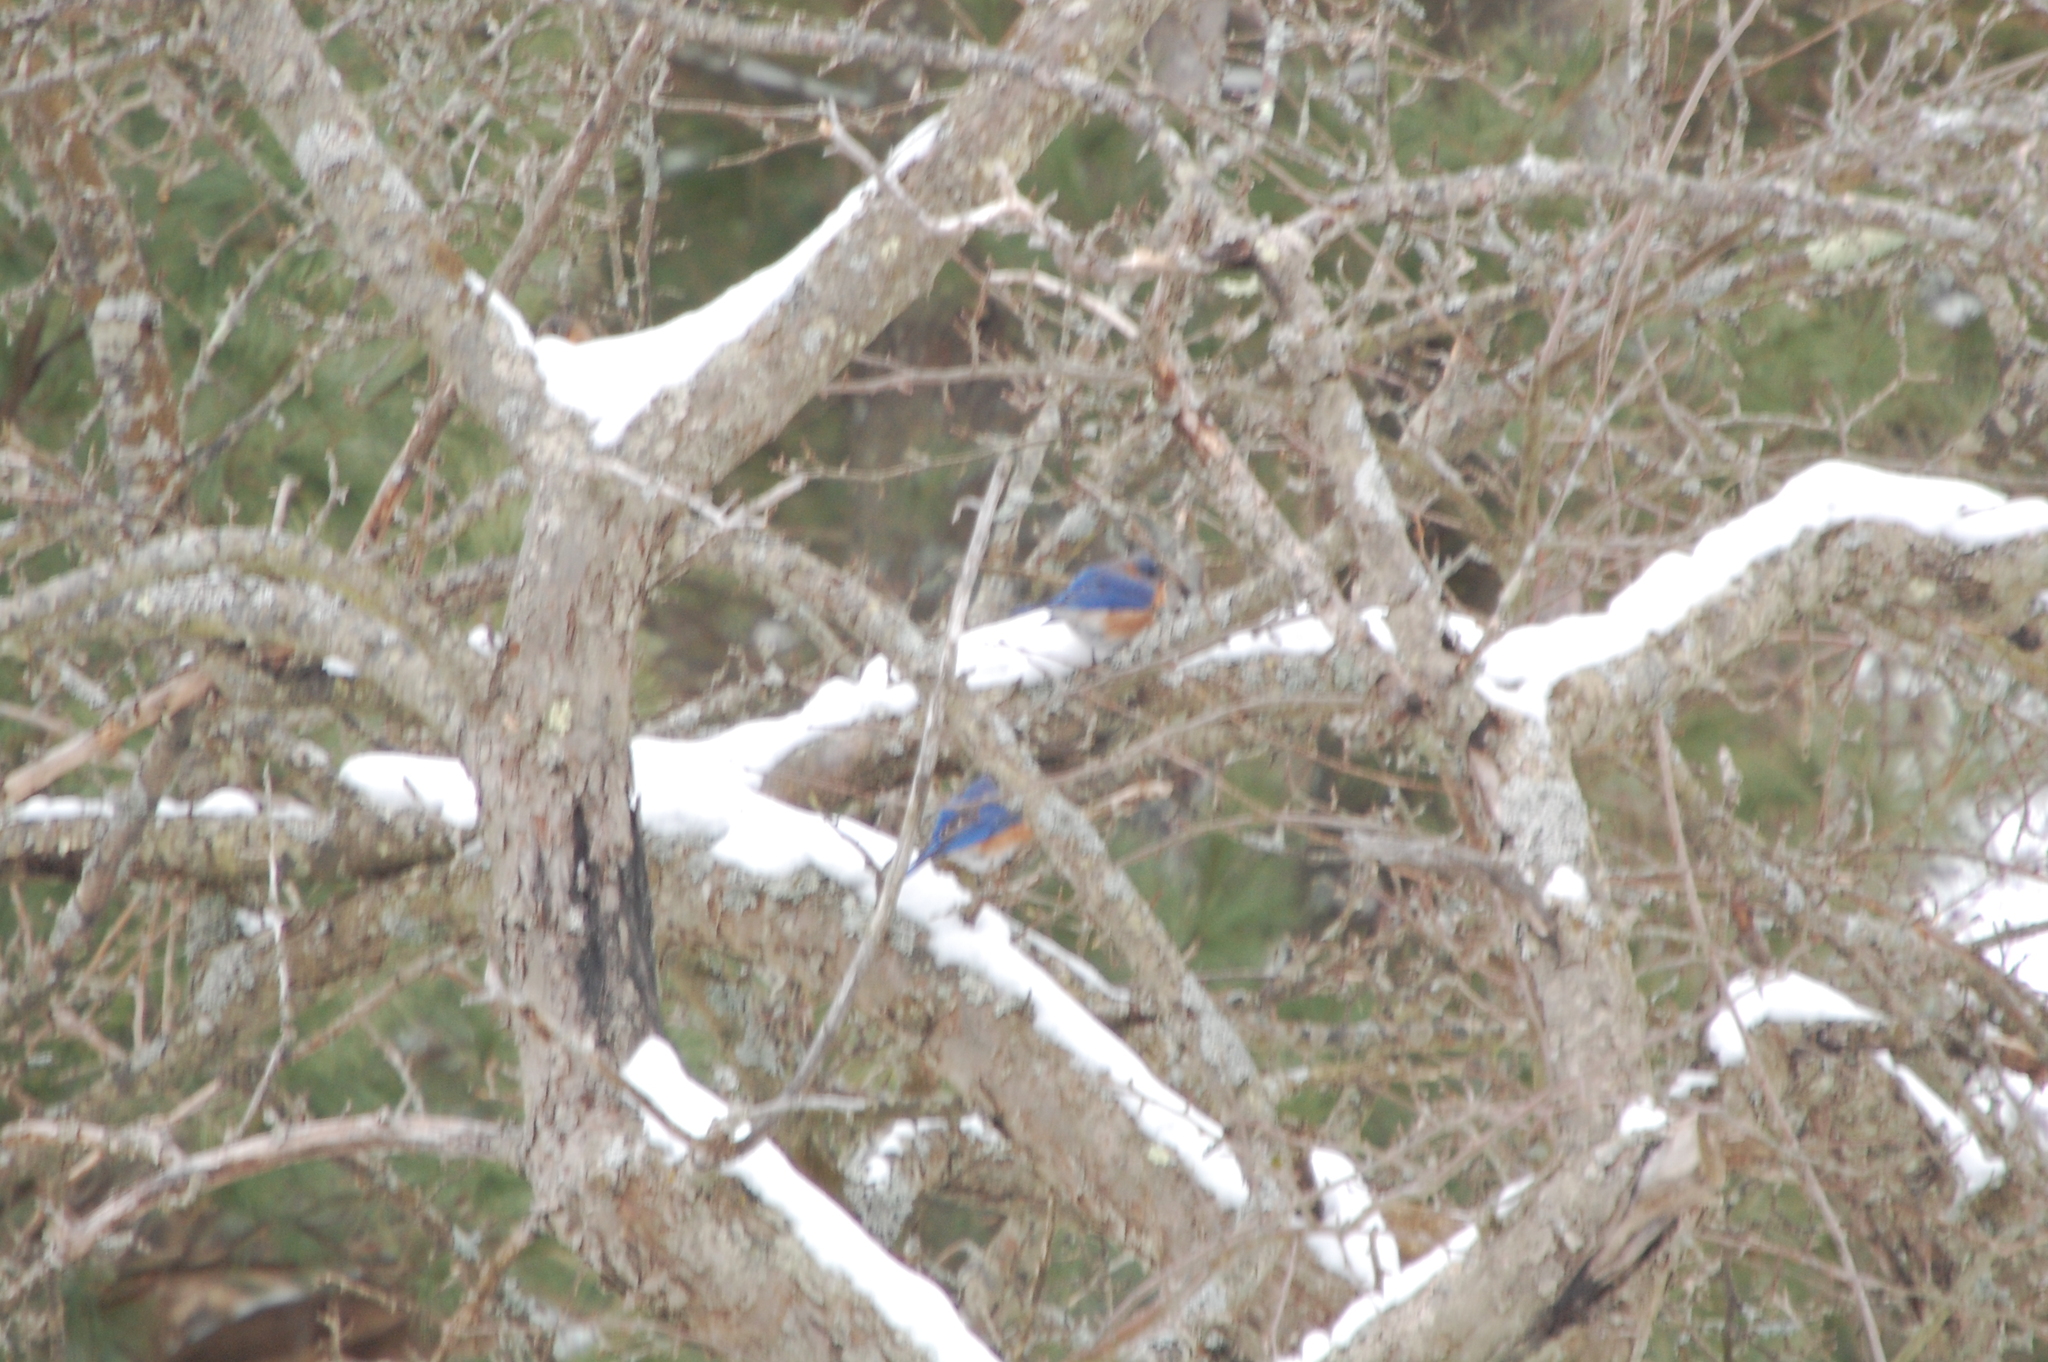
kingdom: Animalia
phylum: Chordata
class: Aves
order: Passeriformes
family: Turdidae
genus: Sialia
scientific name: Sialia sialis
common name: Eastern bluebird
